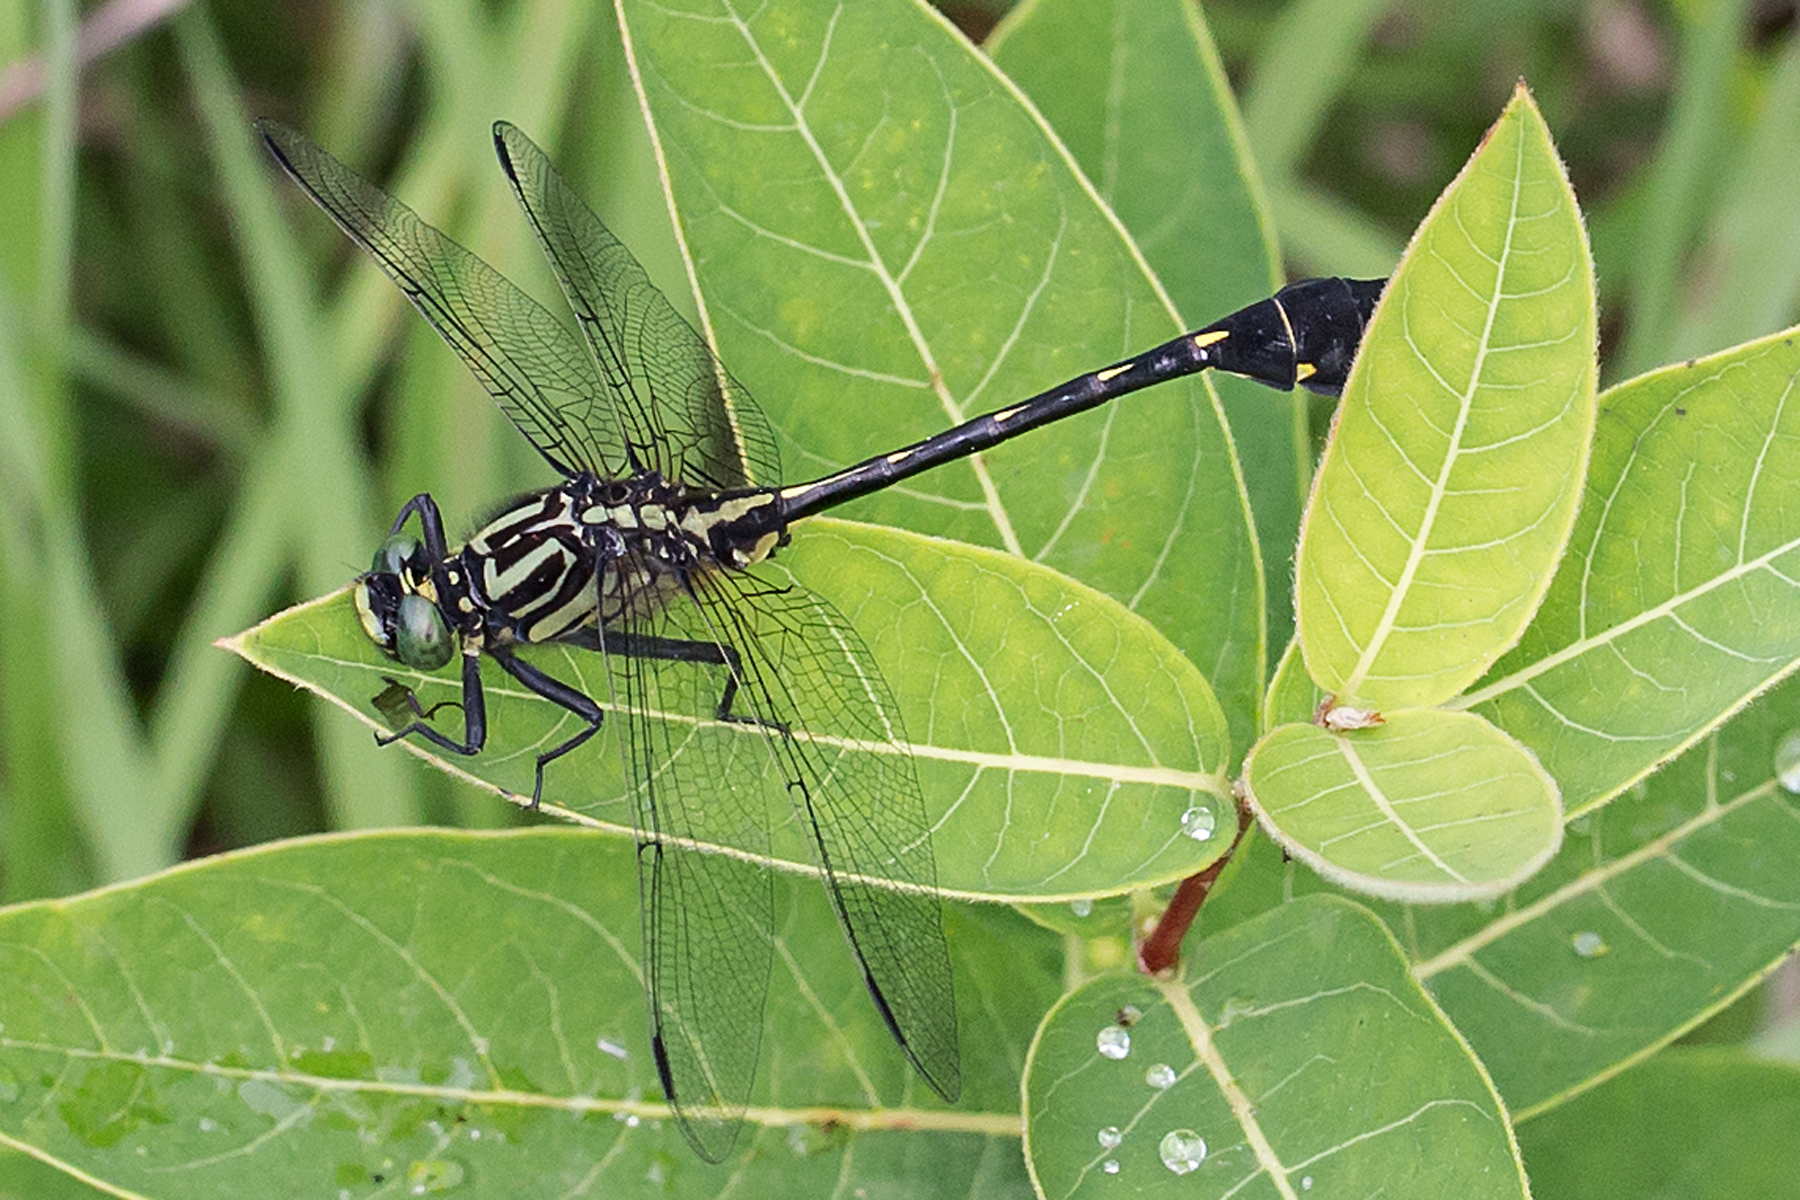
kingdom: Animalia
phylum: Arthropoda
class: Insecta
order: Odonata
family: Gomphidae
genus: Gomphurus
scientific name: Gomphurus vastus
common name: Cobra clubtail
